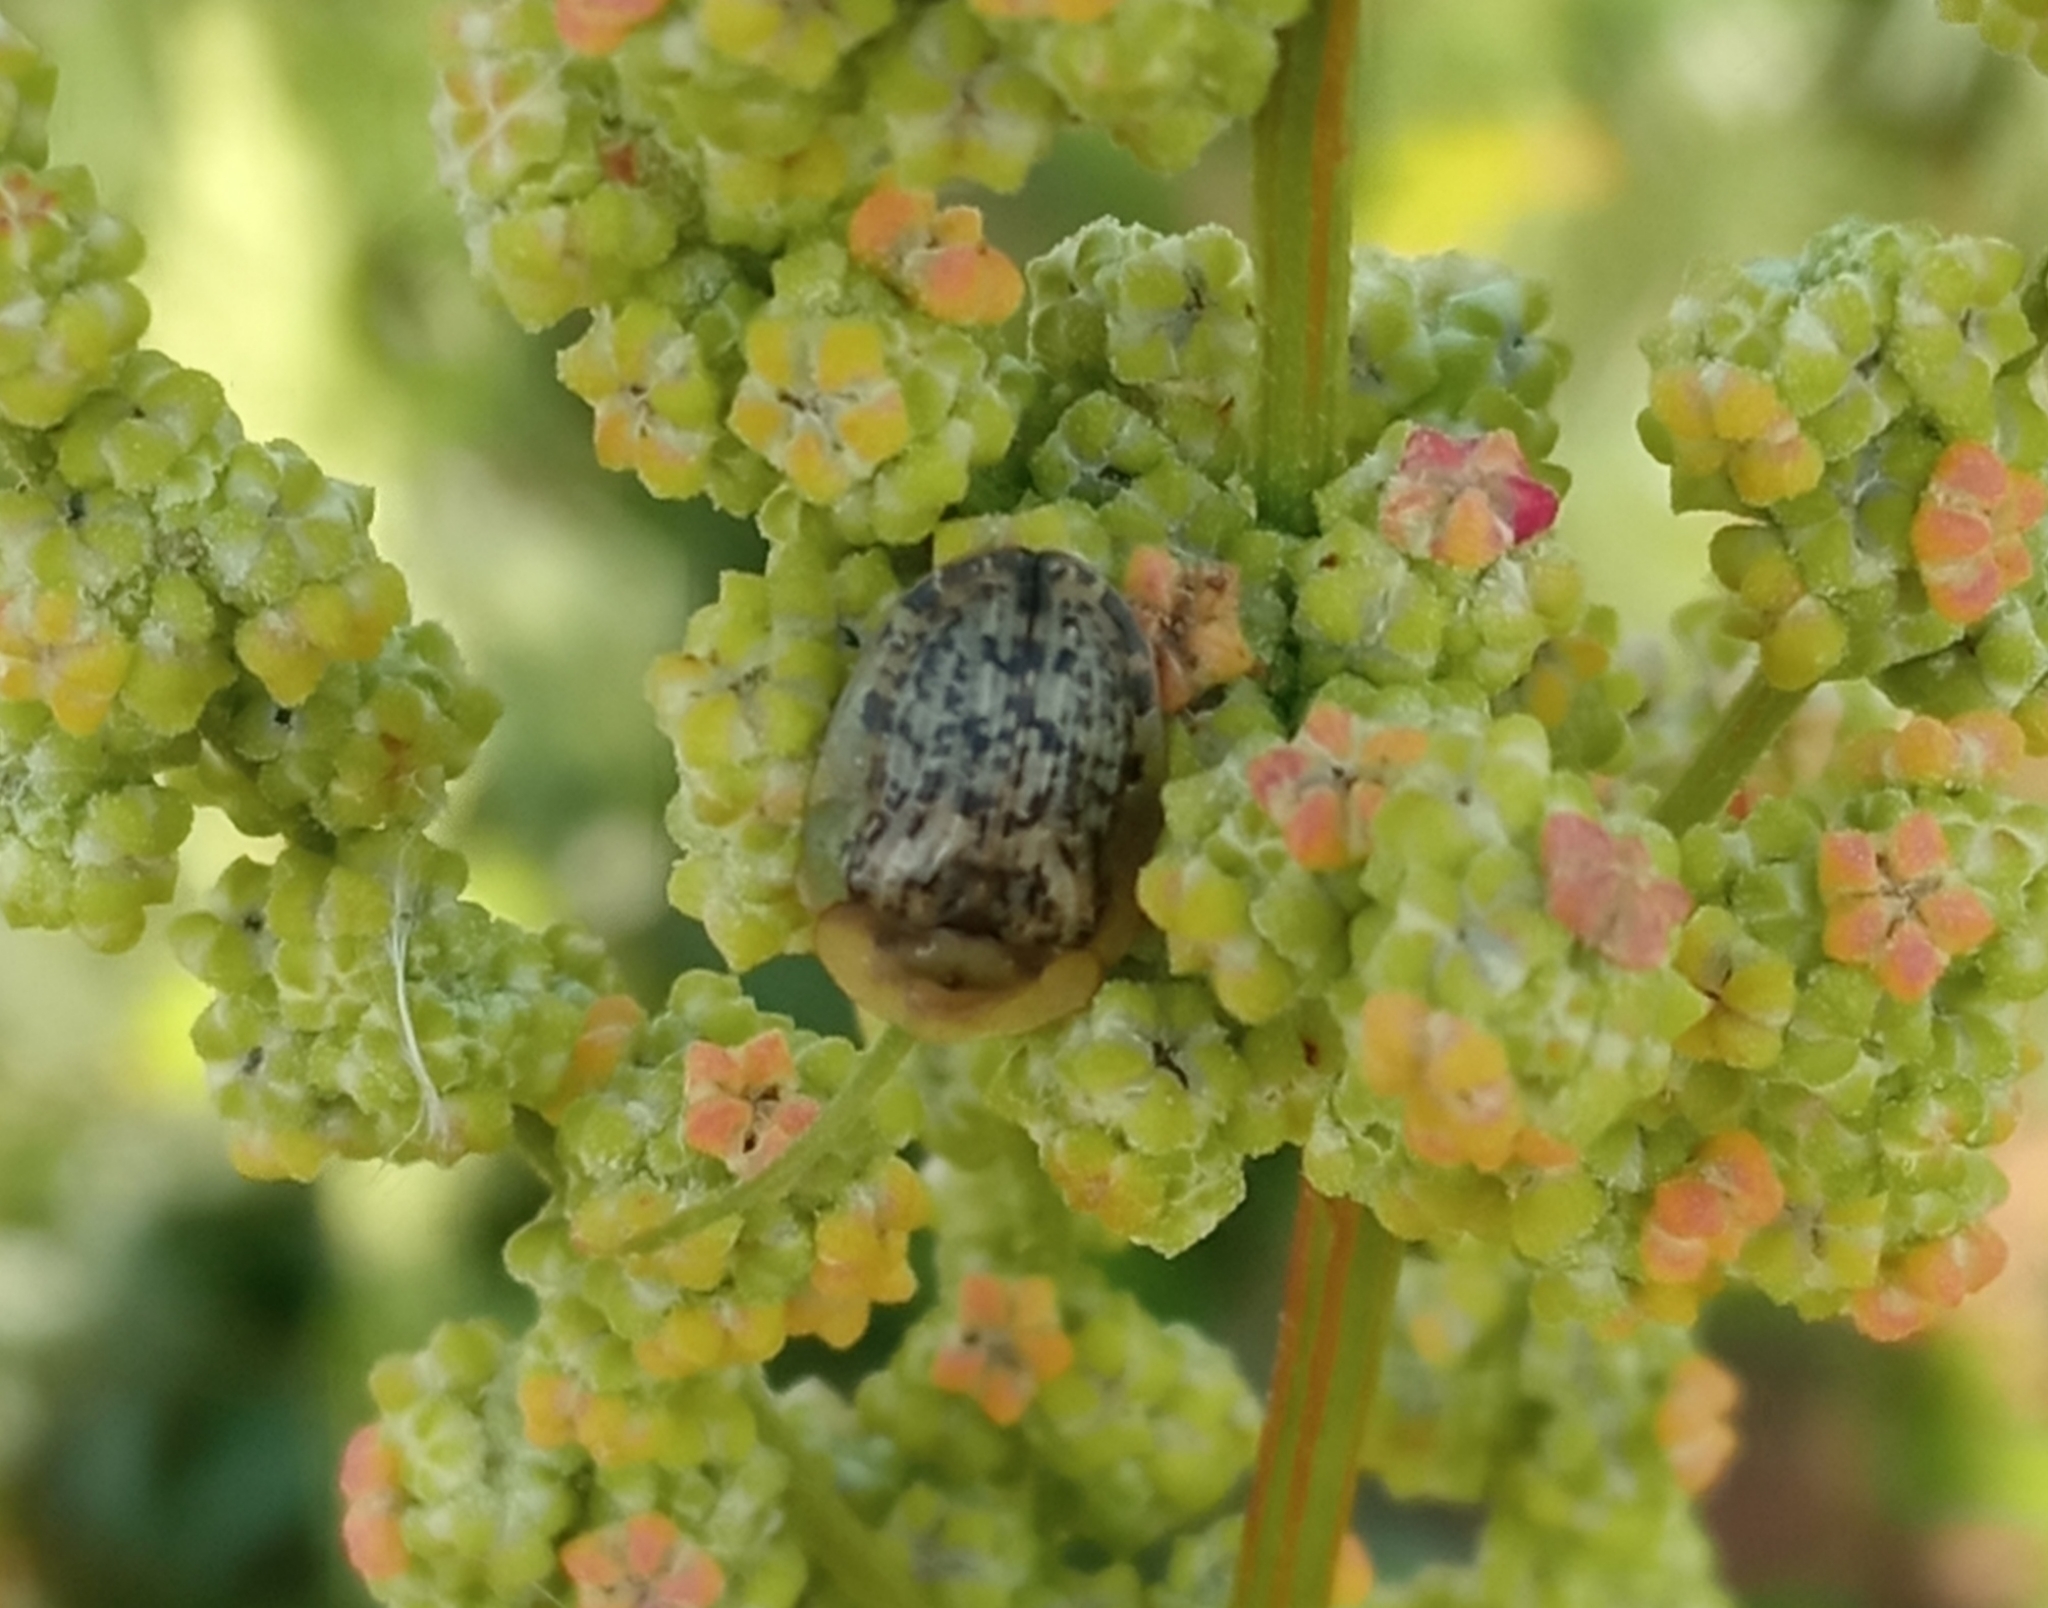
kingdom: Animalia
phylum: Arthropoda
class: Insecta
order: Coleoptera
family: Chrysomelidae
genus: Cassida
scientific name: Cassida nebulosa
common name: Beet tortoise beetle
